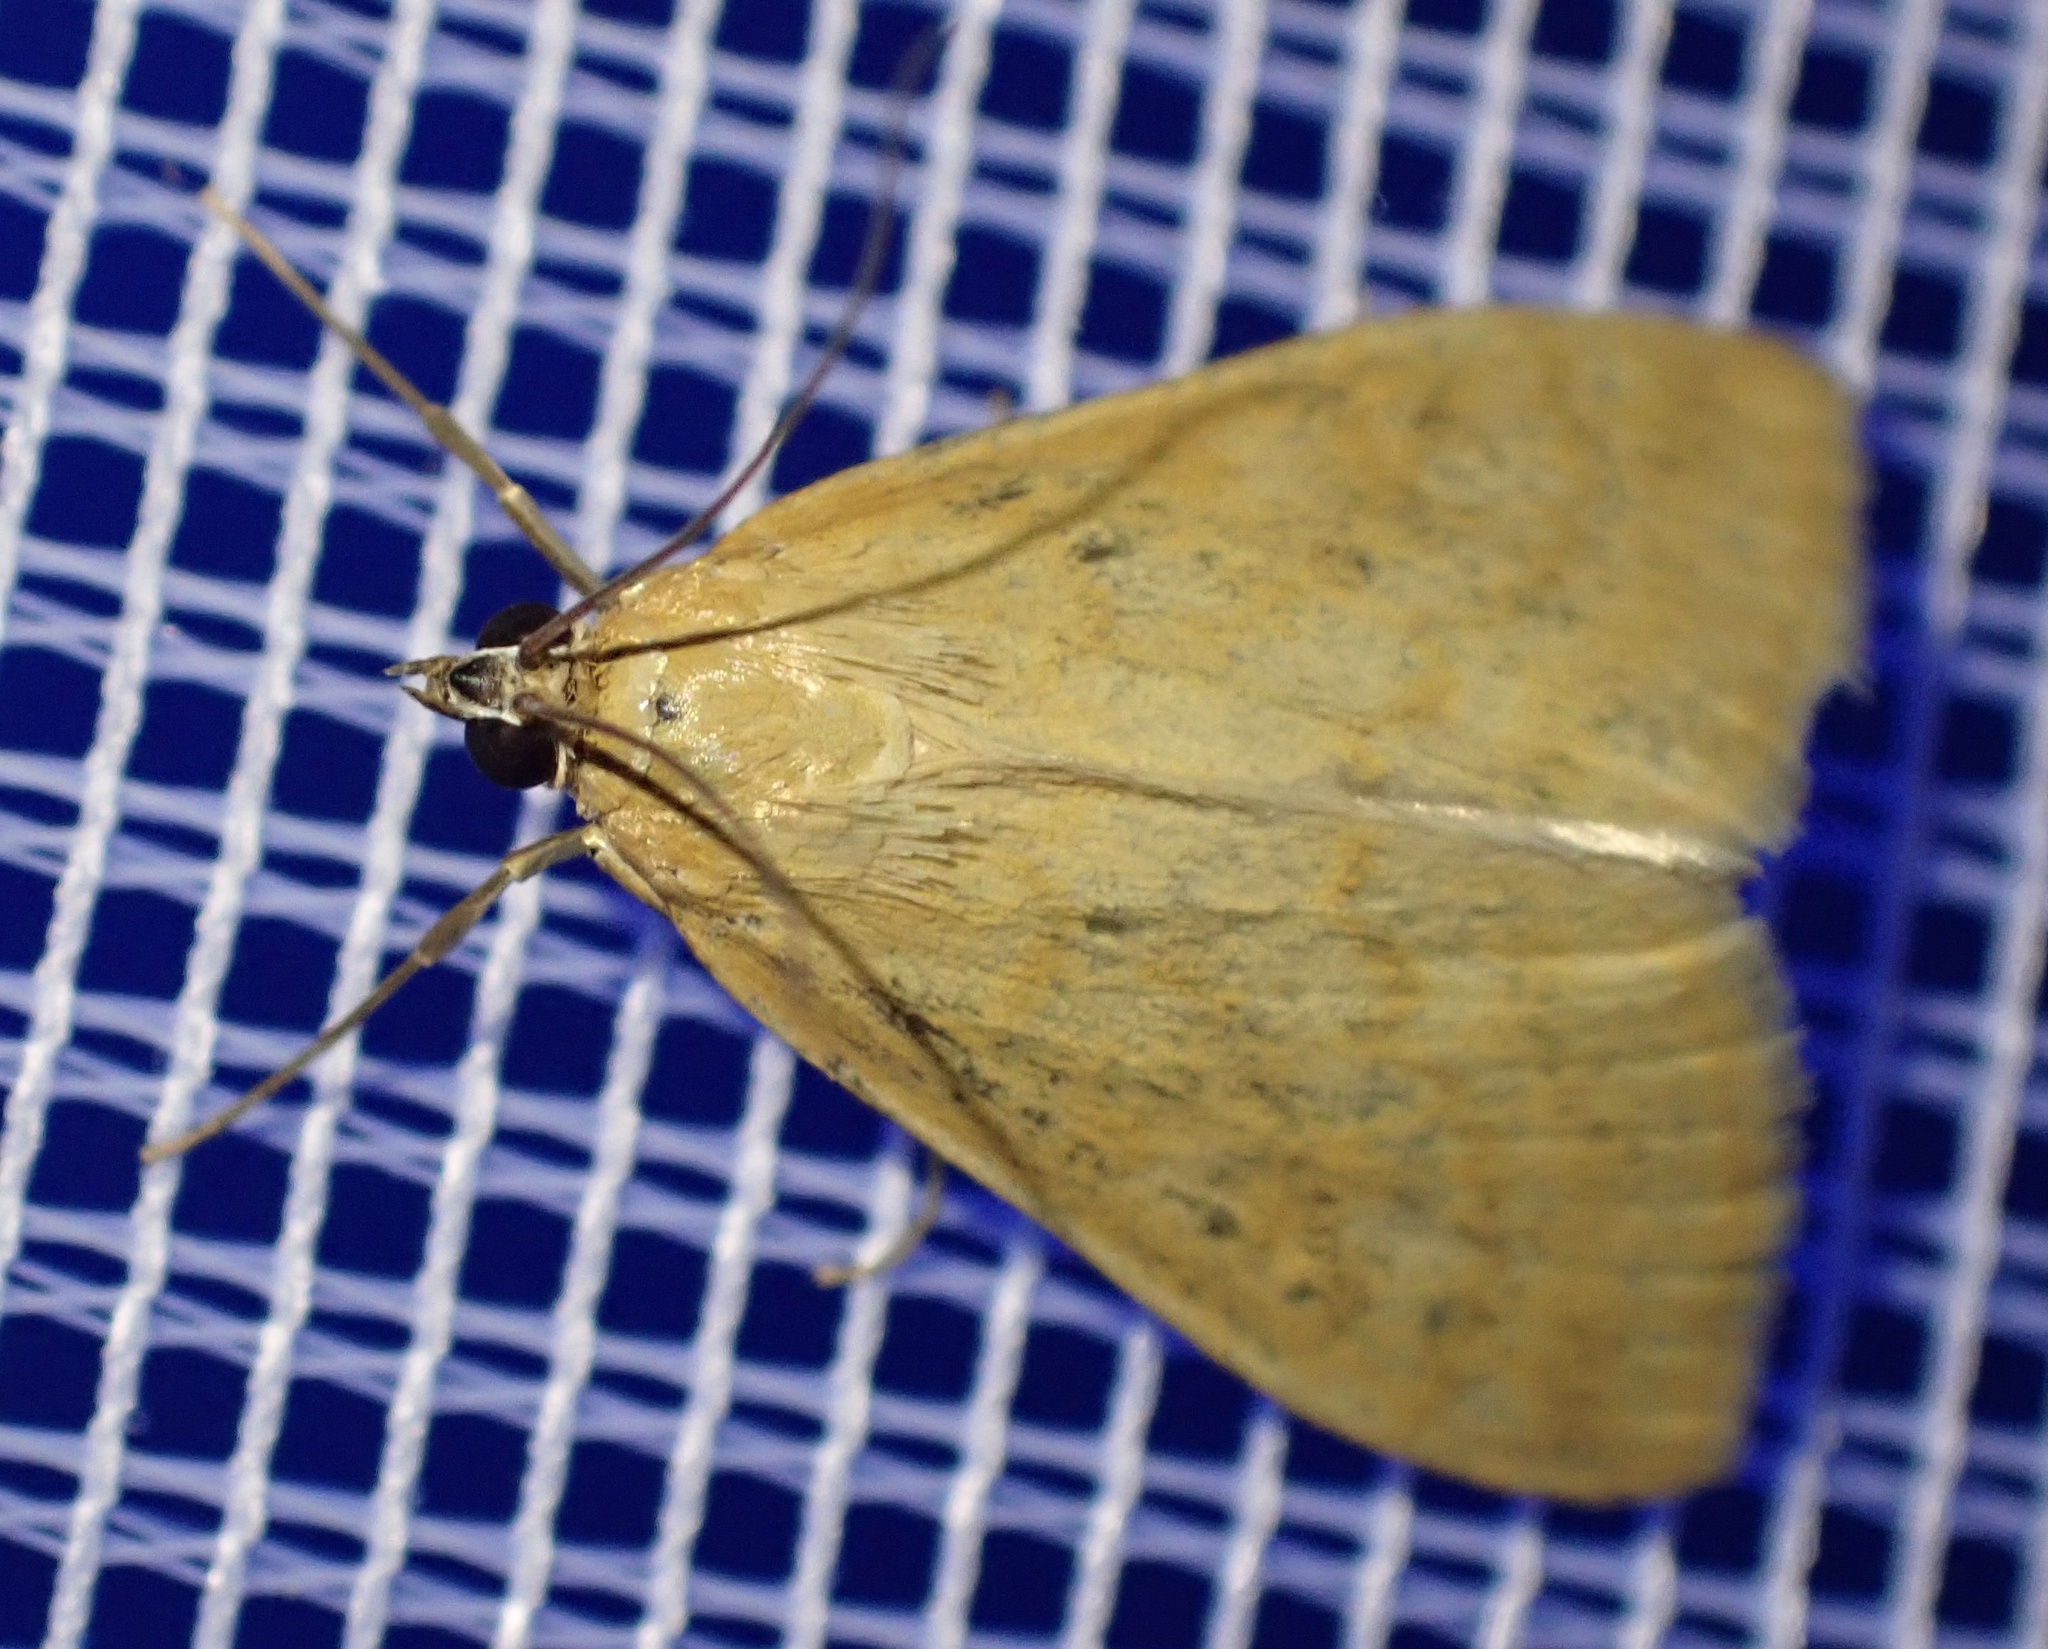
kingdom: Animalia
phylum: Arthropoda
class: Insecta
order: Lepidoptera
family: Crambidae
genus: Sitochroa
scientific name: Sitochroa verticalis
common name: Lesser pearl
